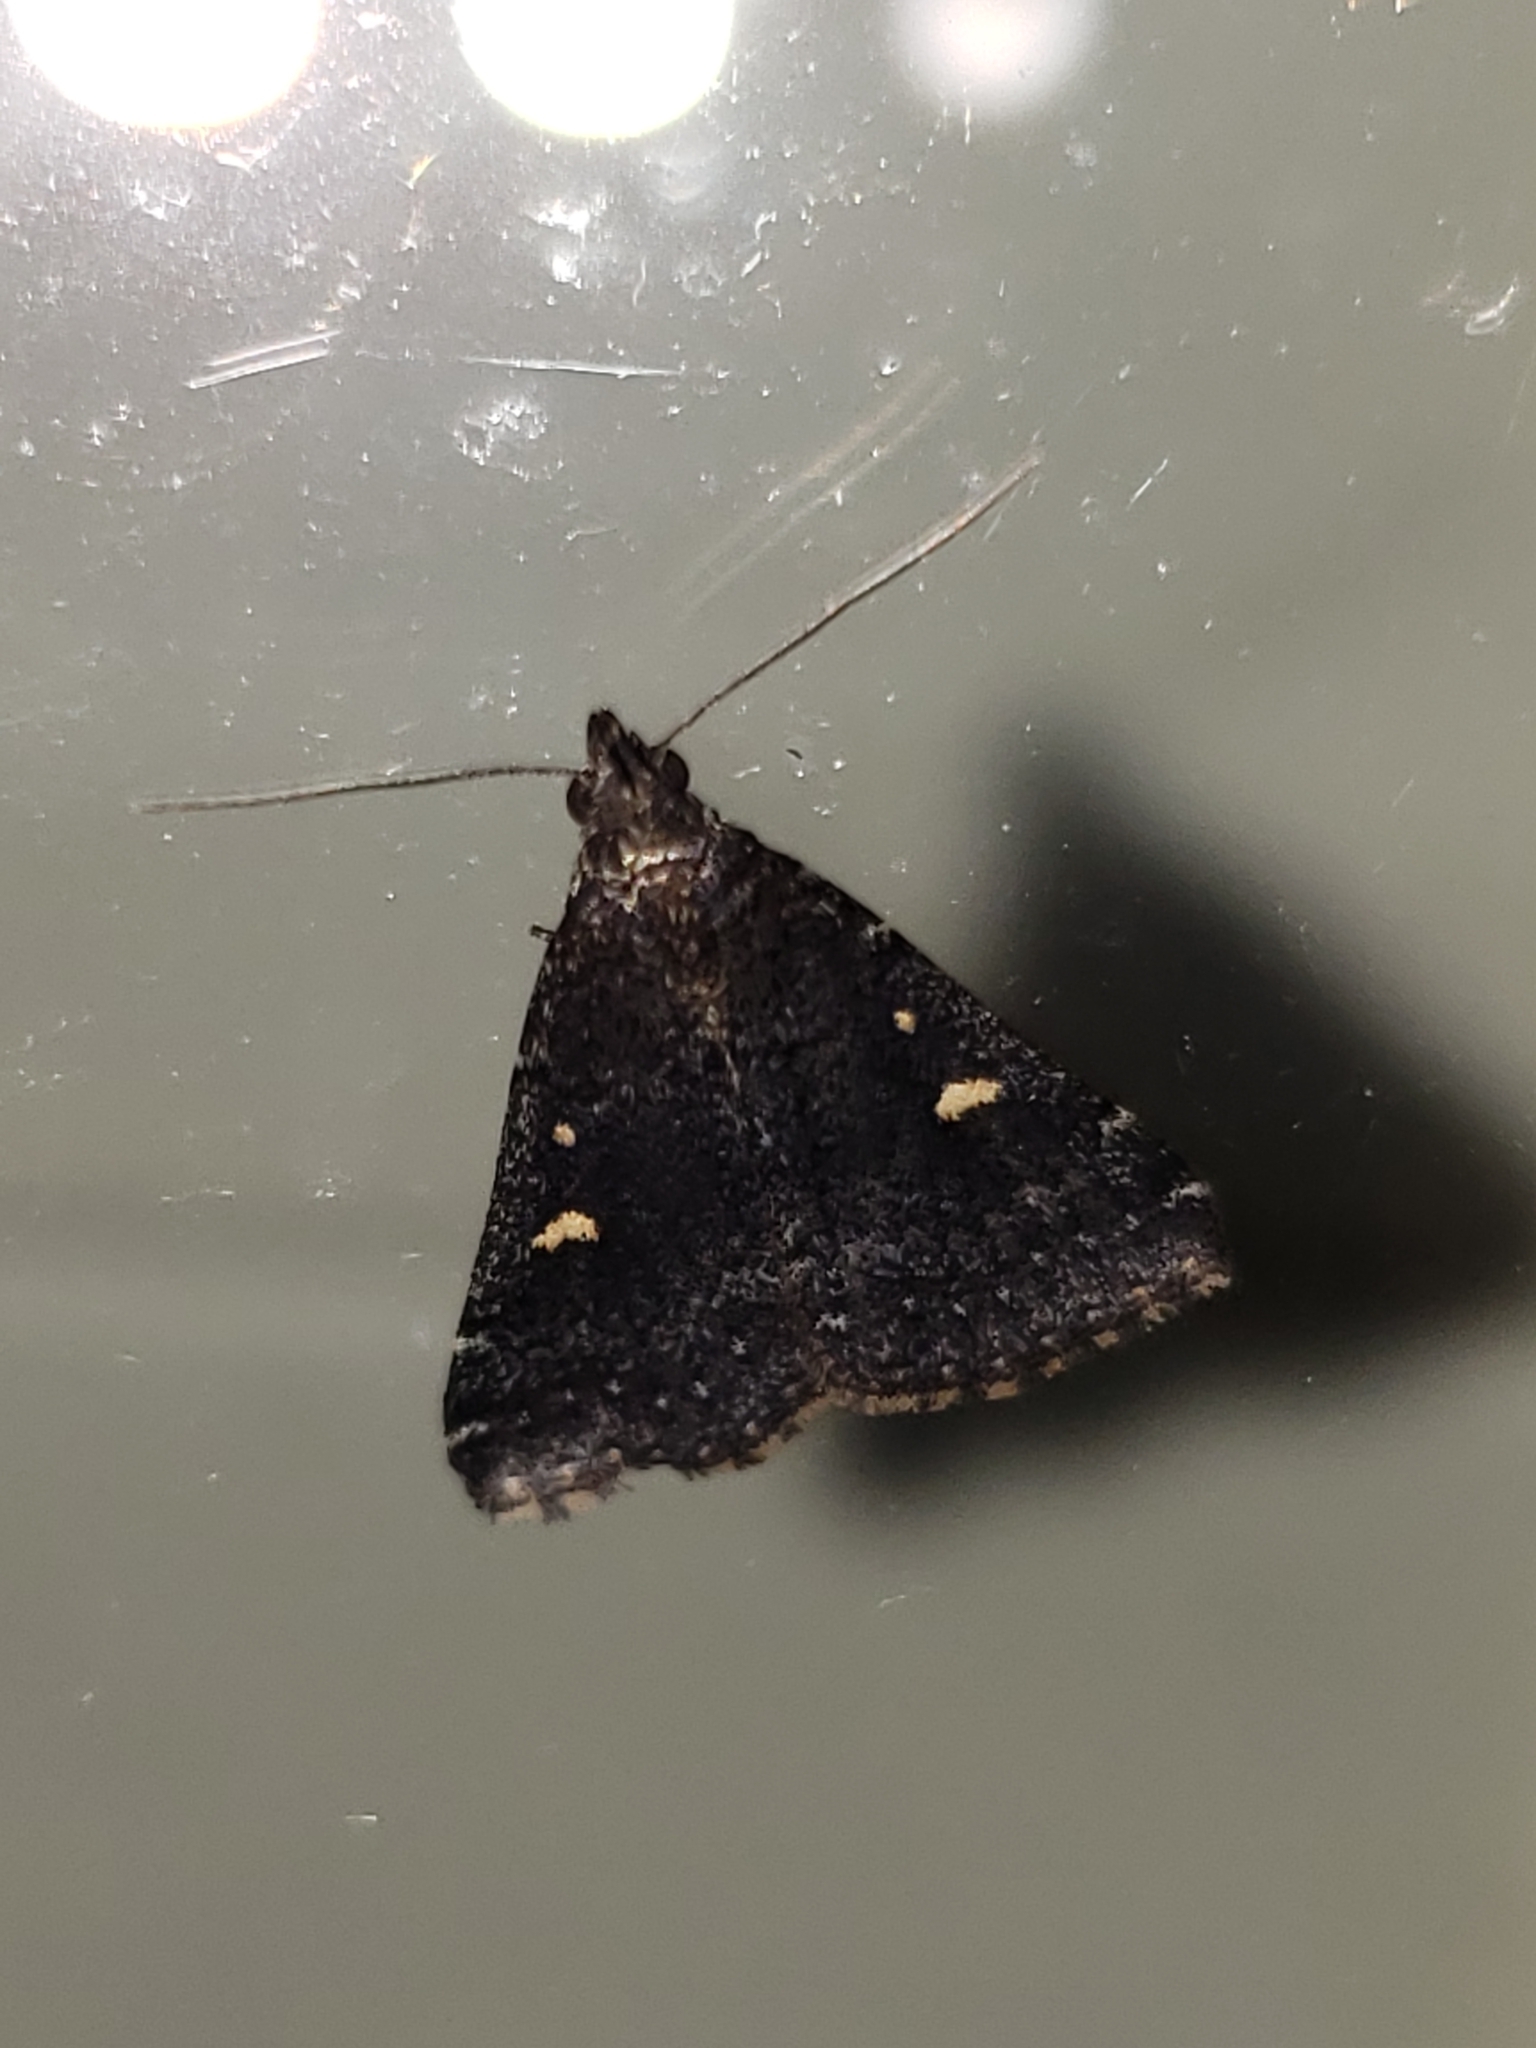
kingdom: Animalia
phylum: Arthropoda
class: Insecta
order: Lepidoptera
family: Erebidae
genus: Tetanolita
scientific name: Tetanolita mynesalis
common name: Smoky tetanolita moth
